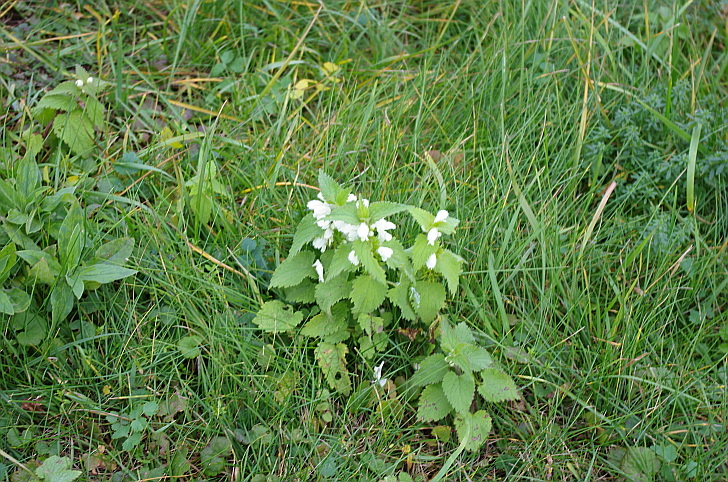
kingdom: Plantae
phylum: Tracheophyta
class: Magnoliopsida
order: Lamiales
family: Lamiaceae
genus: Lamium
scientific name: Lamium album
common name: White dead-nettle
